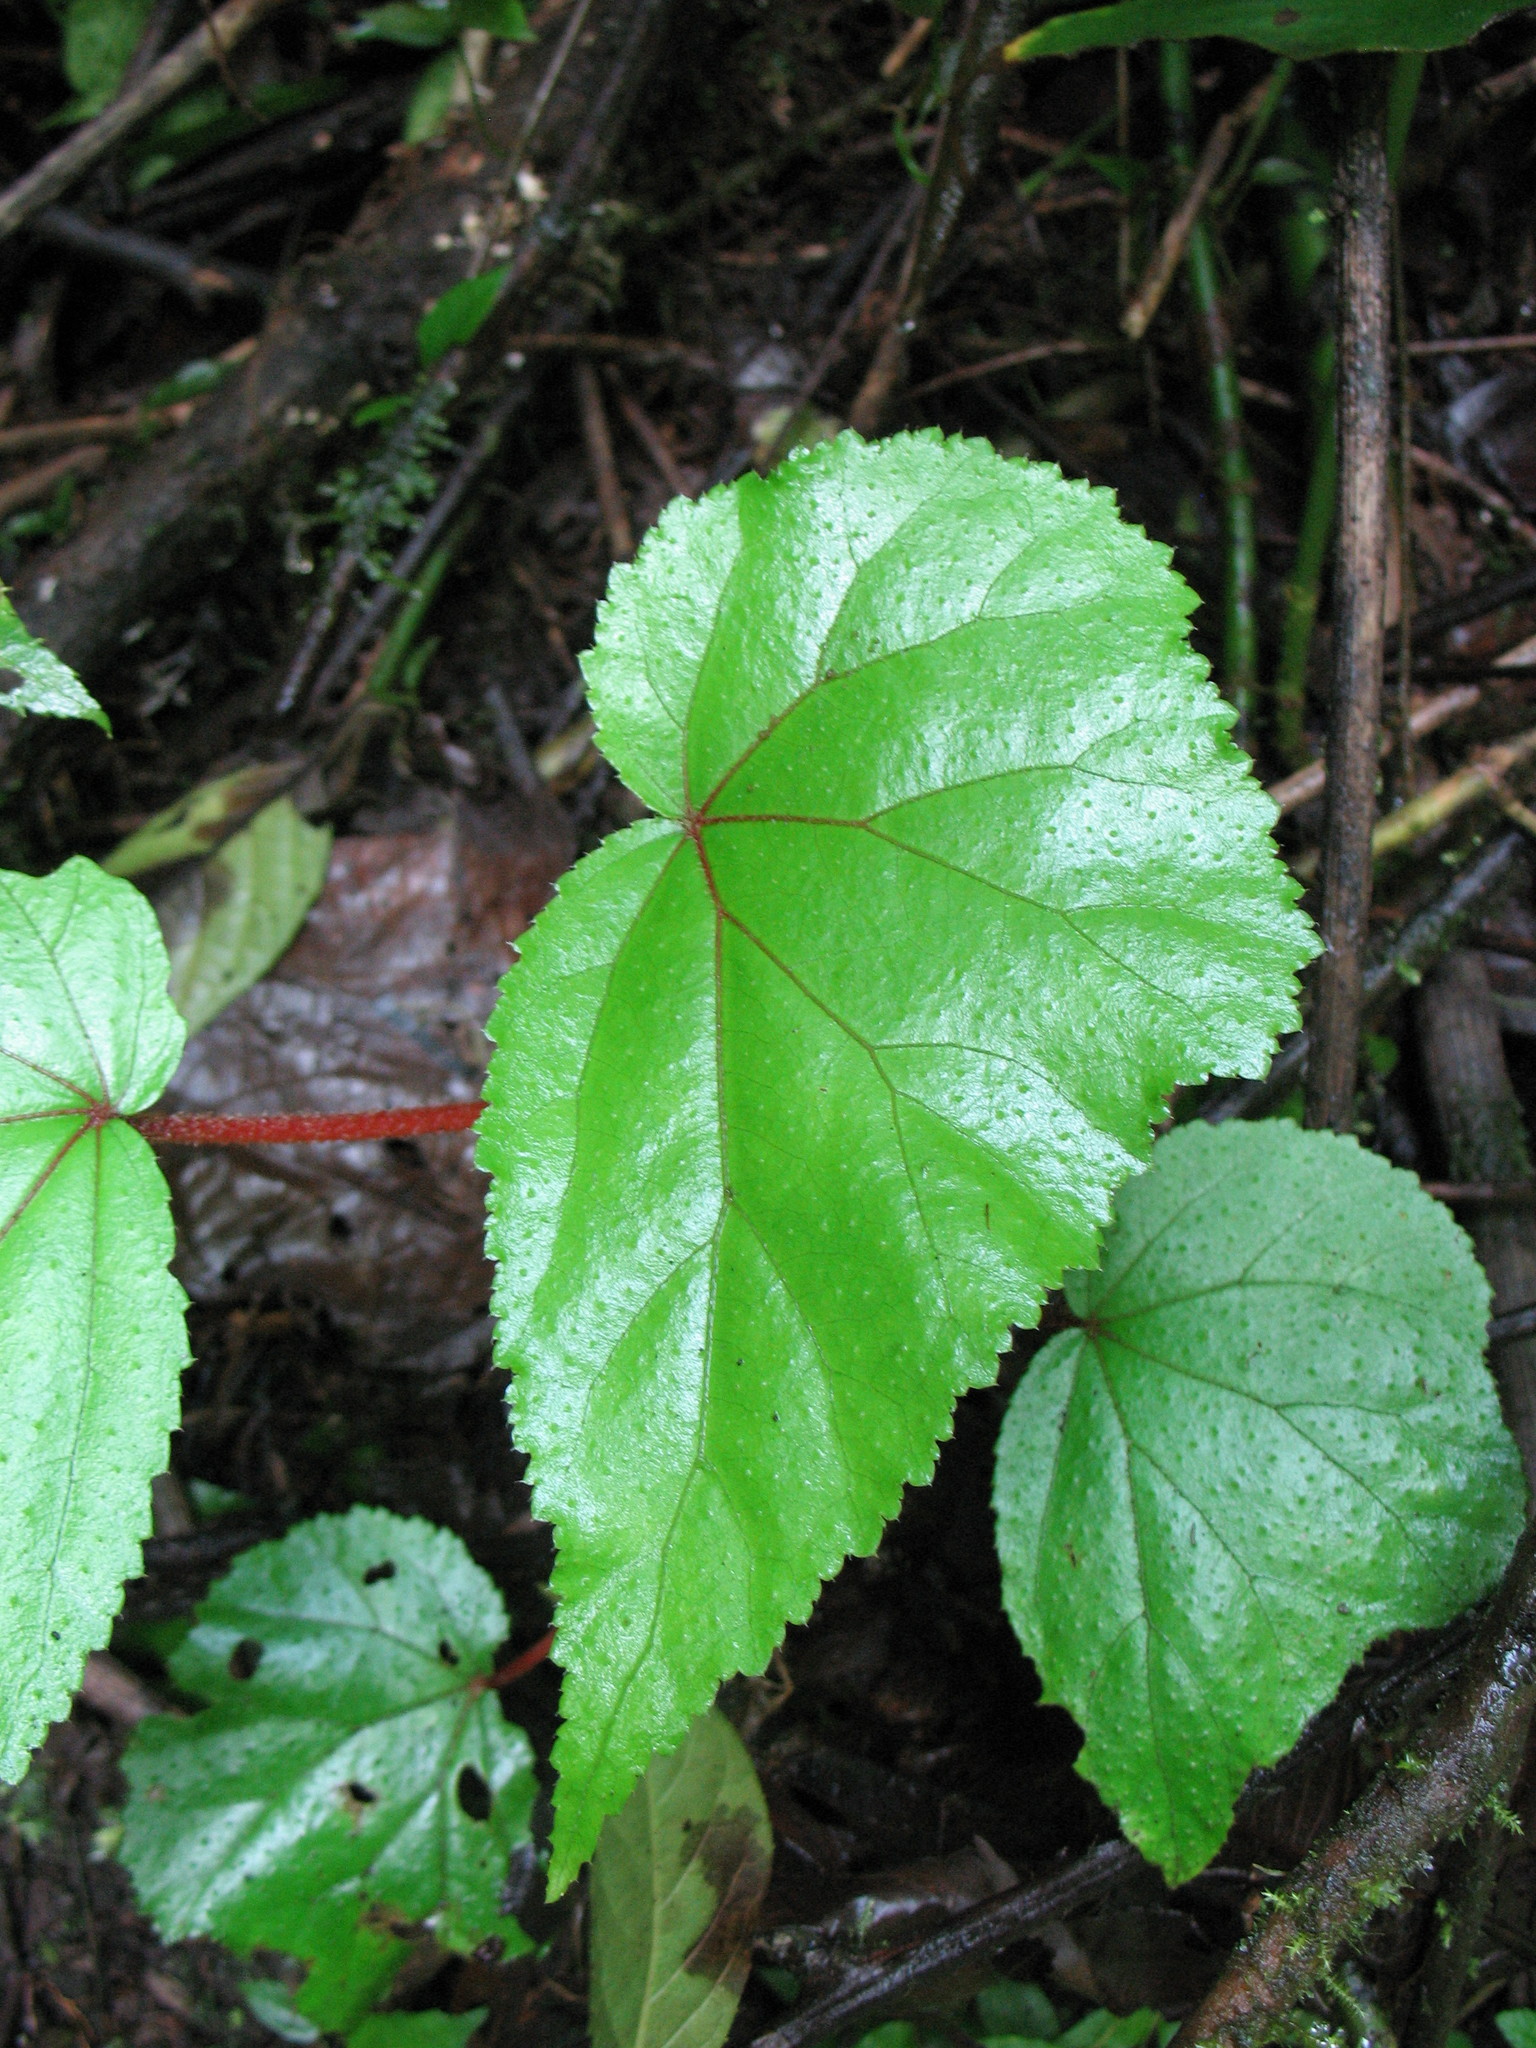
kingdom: Plantae
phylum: Tracheophyta
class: Magnoliopsida
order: Cucurbitales
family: Begoniaceae
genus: Begonia
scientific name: Begonia parviflora
